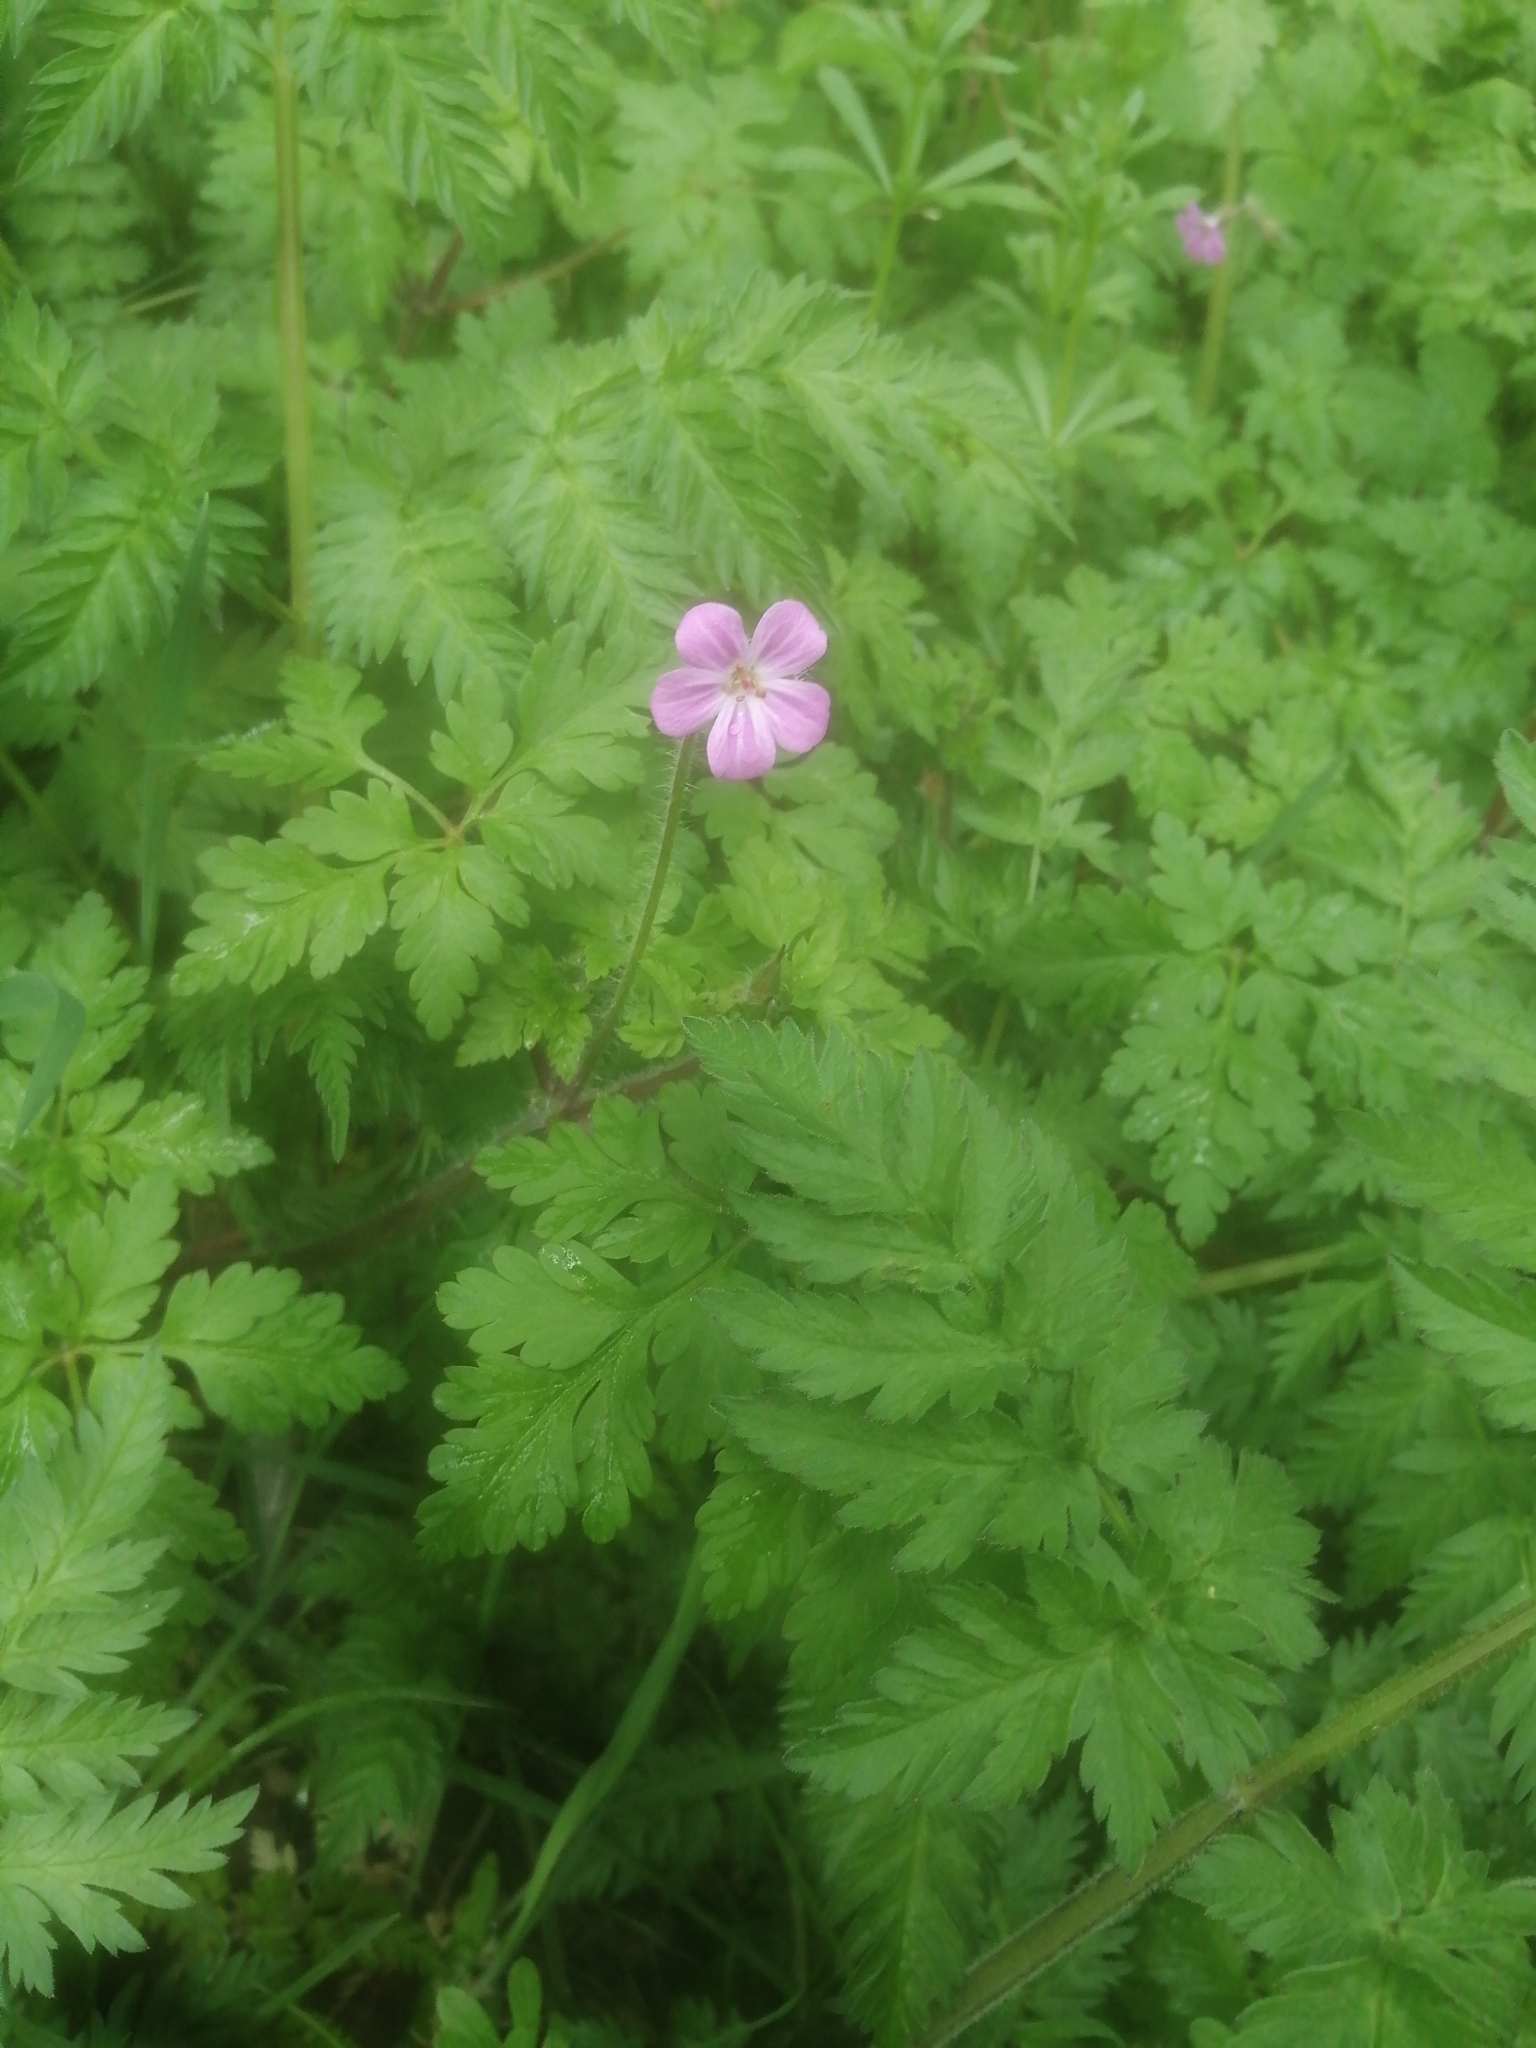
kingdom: Plantae
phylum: Tracheophyta
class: Magnoliopsida
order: Geraniales
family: Geraniaceae
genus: Geranium
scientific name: Geranium robertianum
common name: Herb-robert
